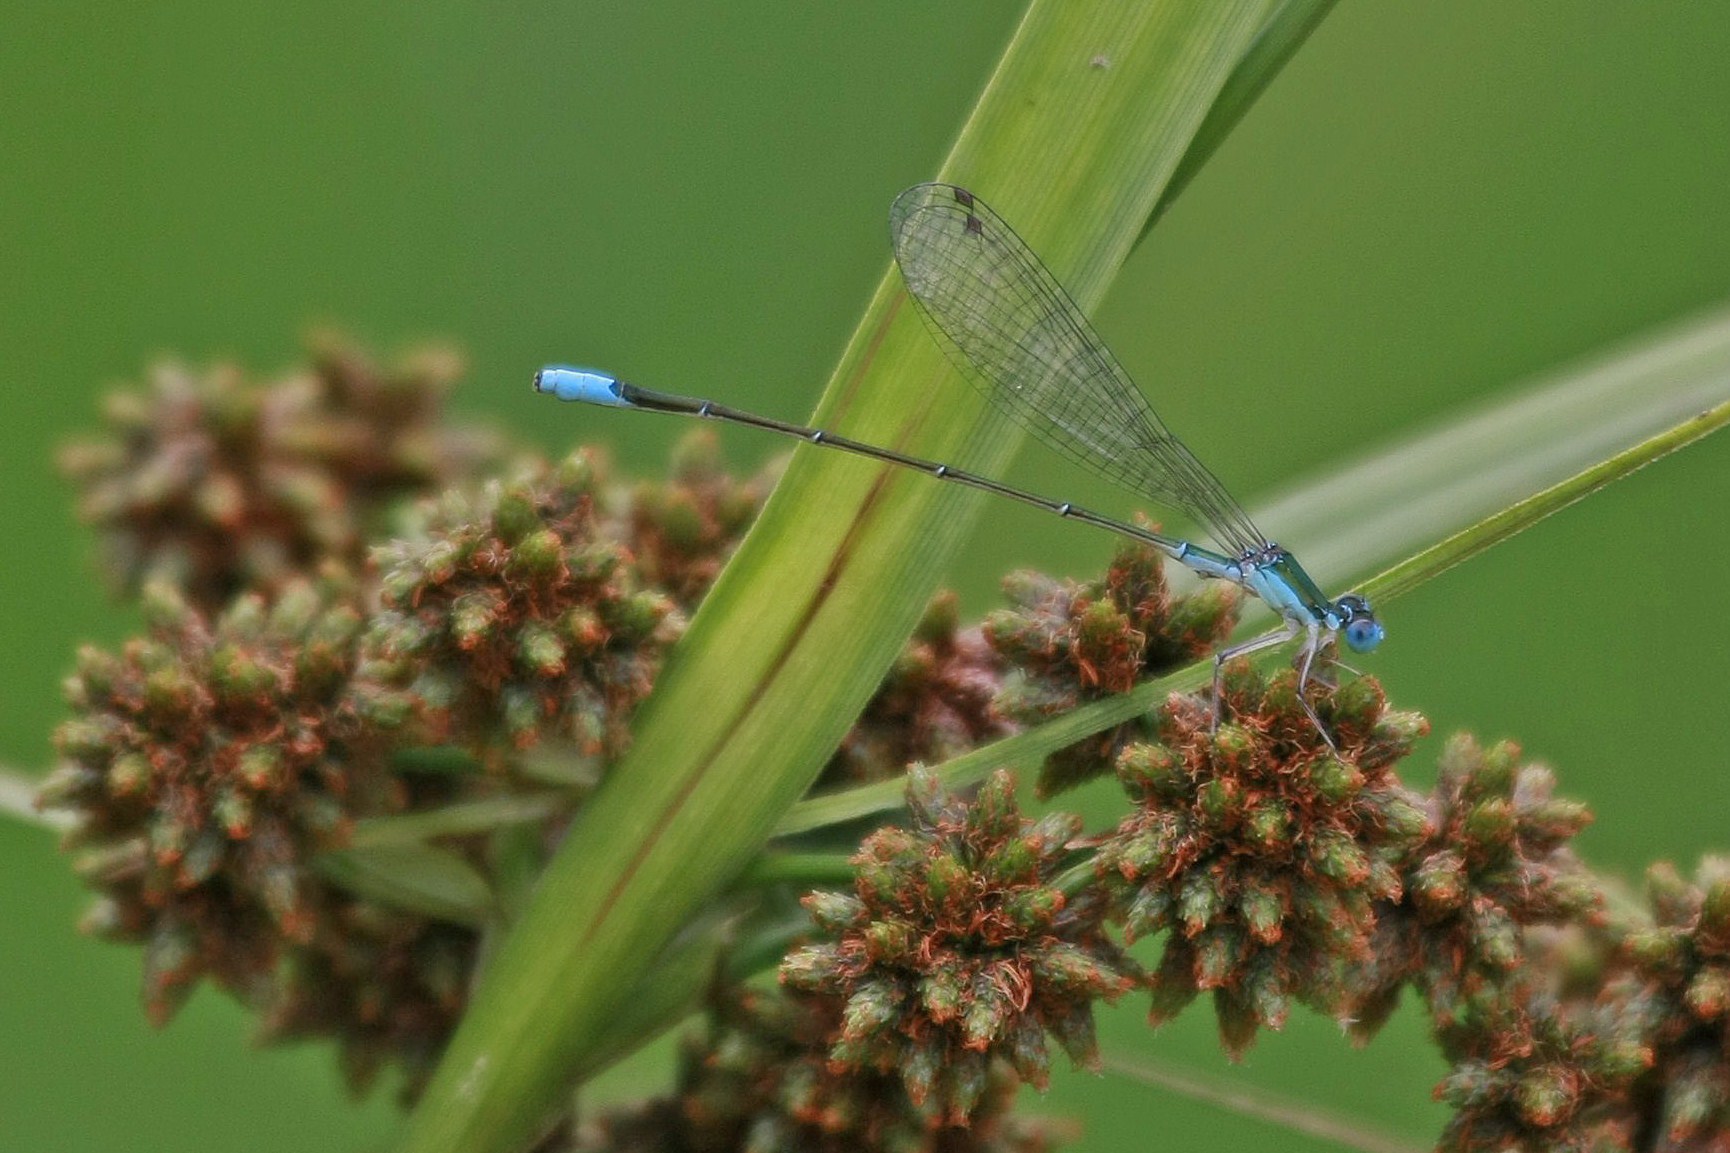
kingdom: Animalia
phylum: Arthropoda
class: Insecta
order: Odonata
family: Coenagrionidae
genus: Nehalennia
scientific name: Nehalennia gracilis
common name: Sphagnum sprite
